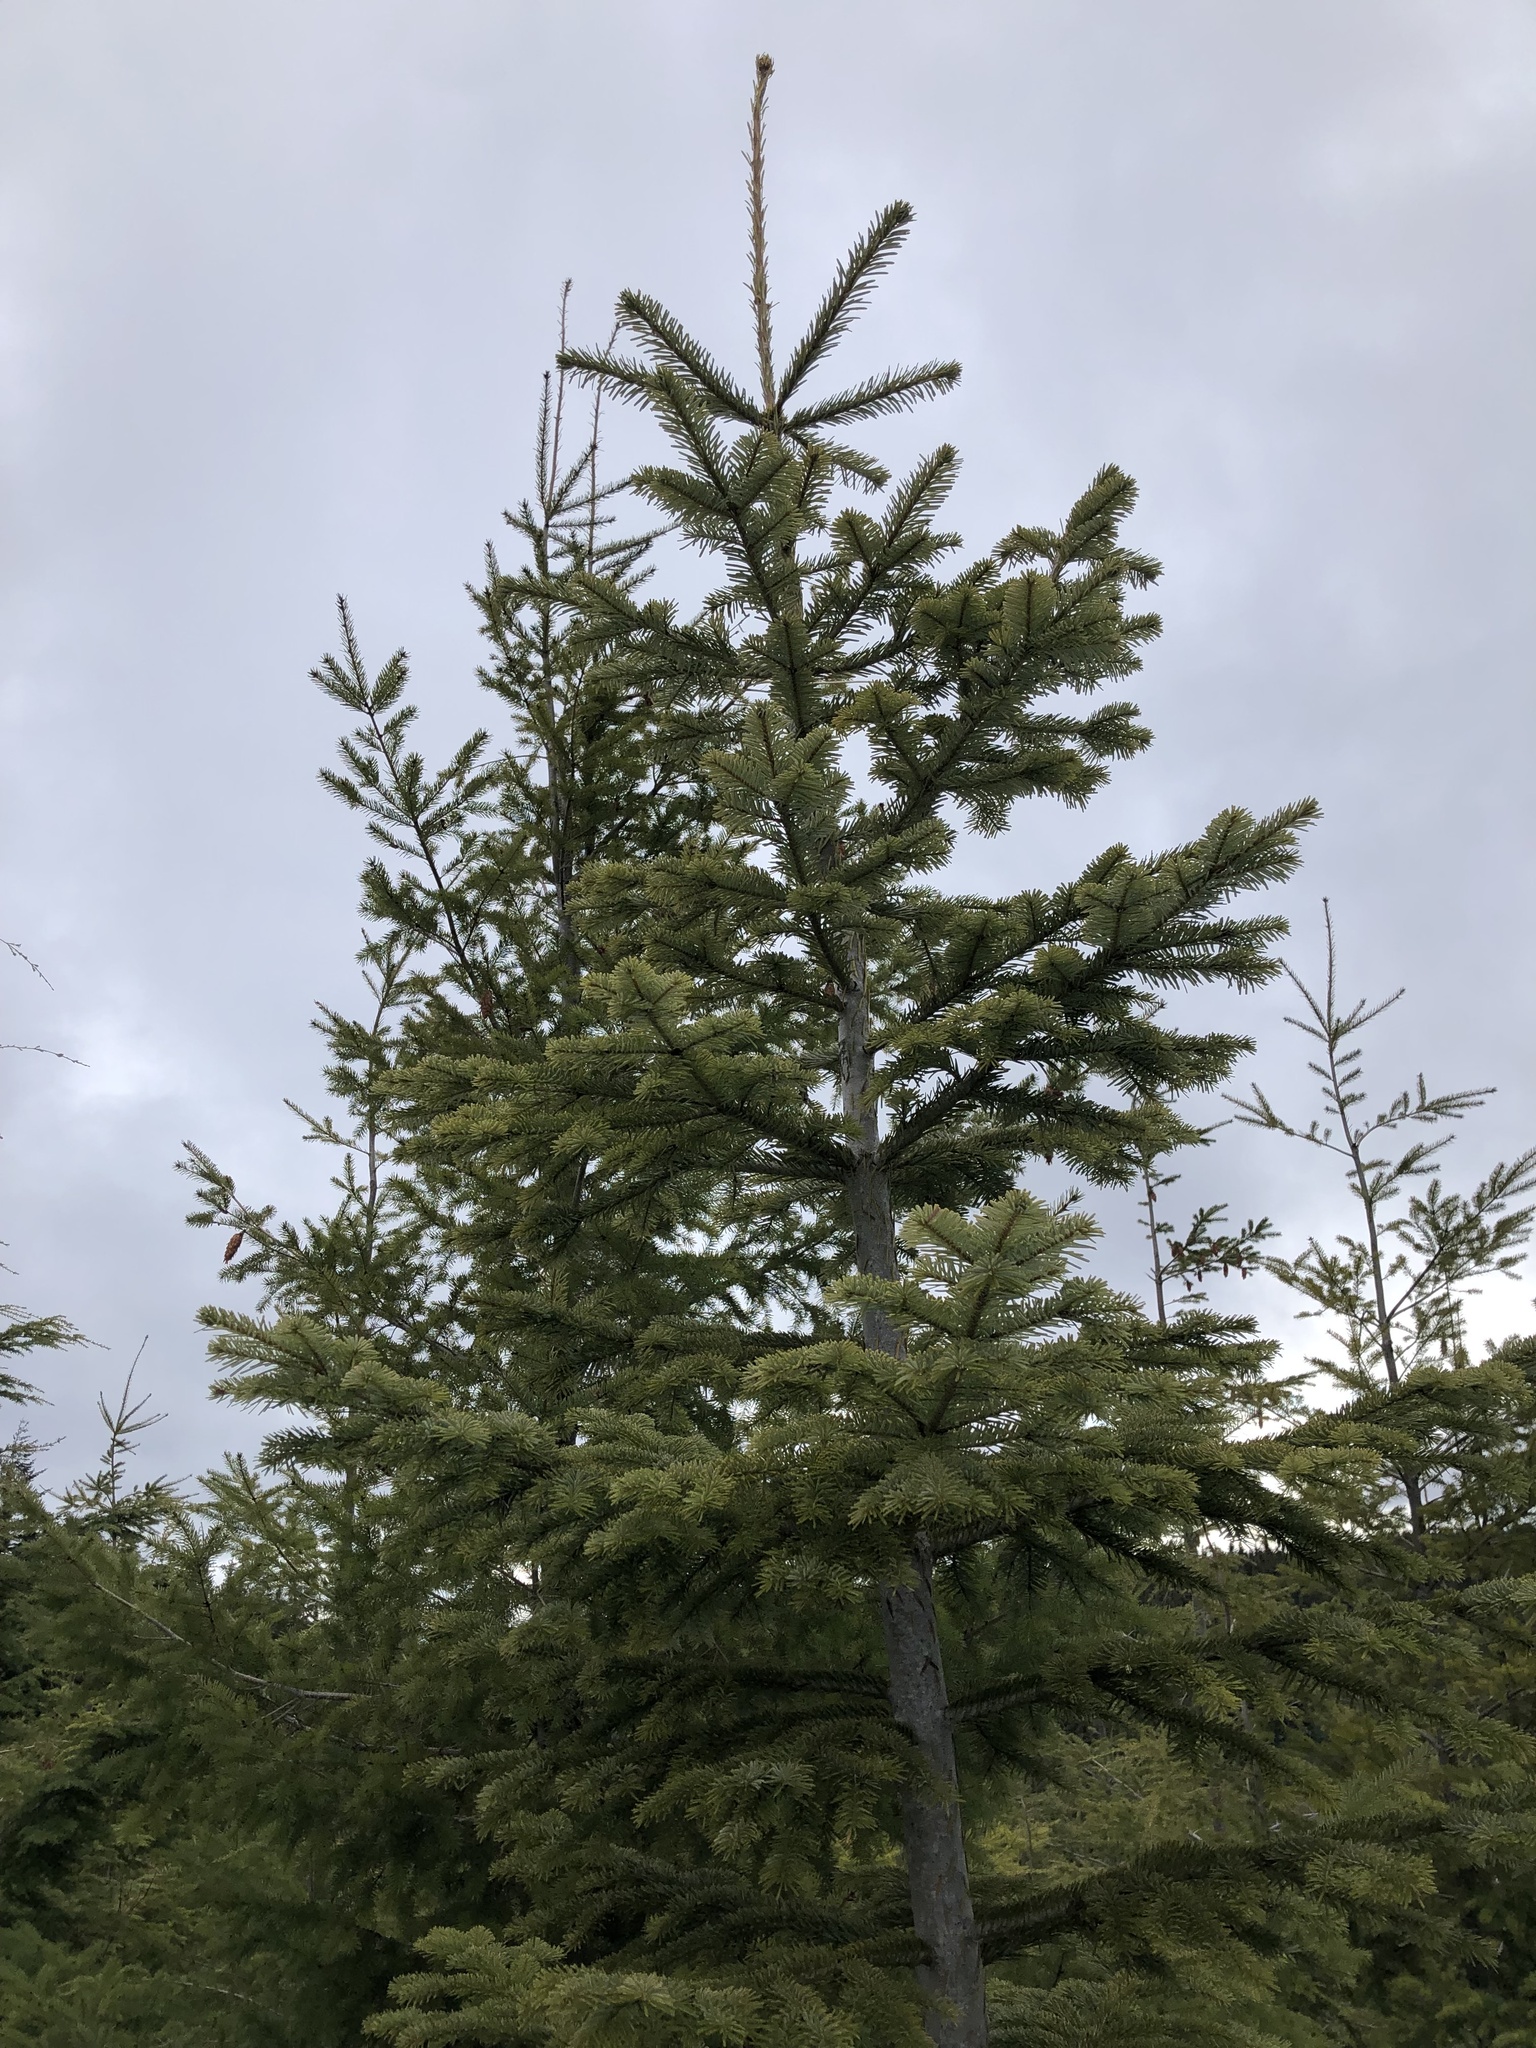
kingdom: Plantae
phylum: Tracheophyta
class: Pinopsida
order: Pinales
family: Pinaceae
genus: Abies
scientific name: Abies amabilis
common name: Pacific silver fir
